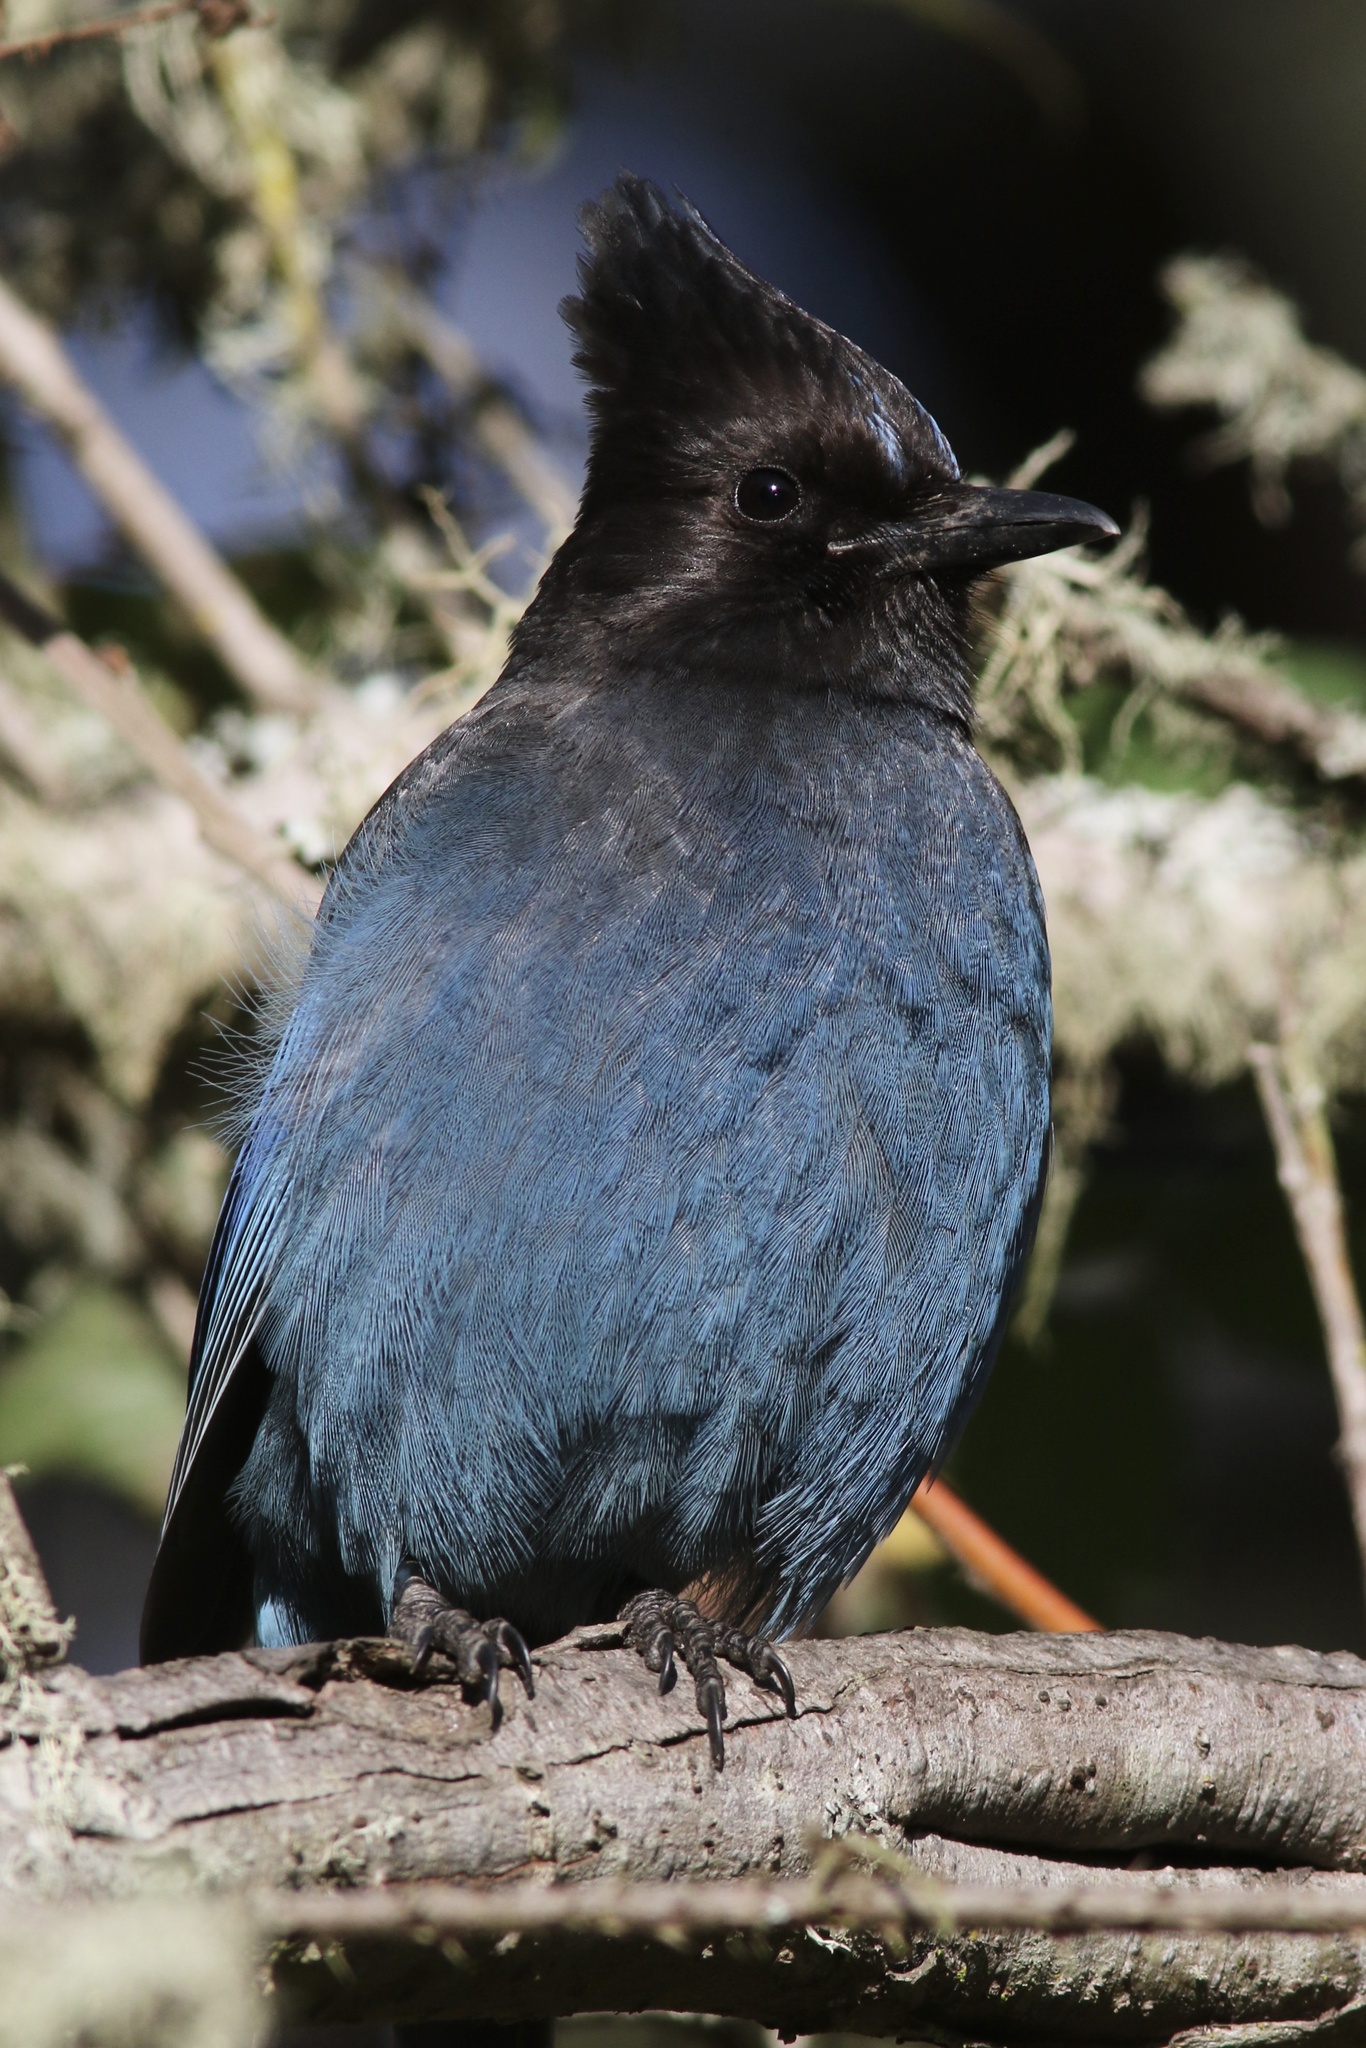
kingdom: Animalia
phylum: Chordata
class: Aves
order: Passeriformes
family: Corvidae
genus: Cyanocitta
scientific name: Cyanocitta stelleri
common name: Steller's jay
